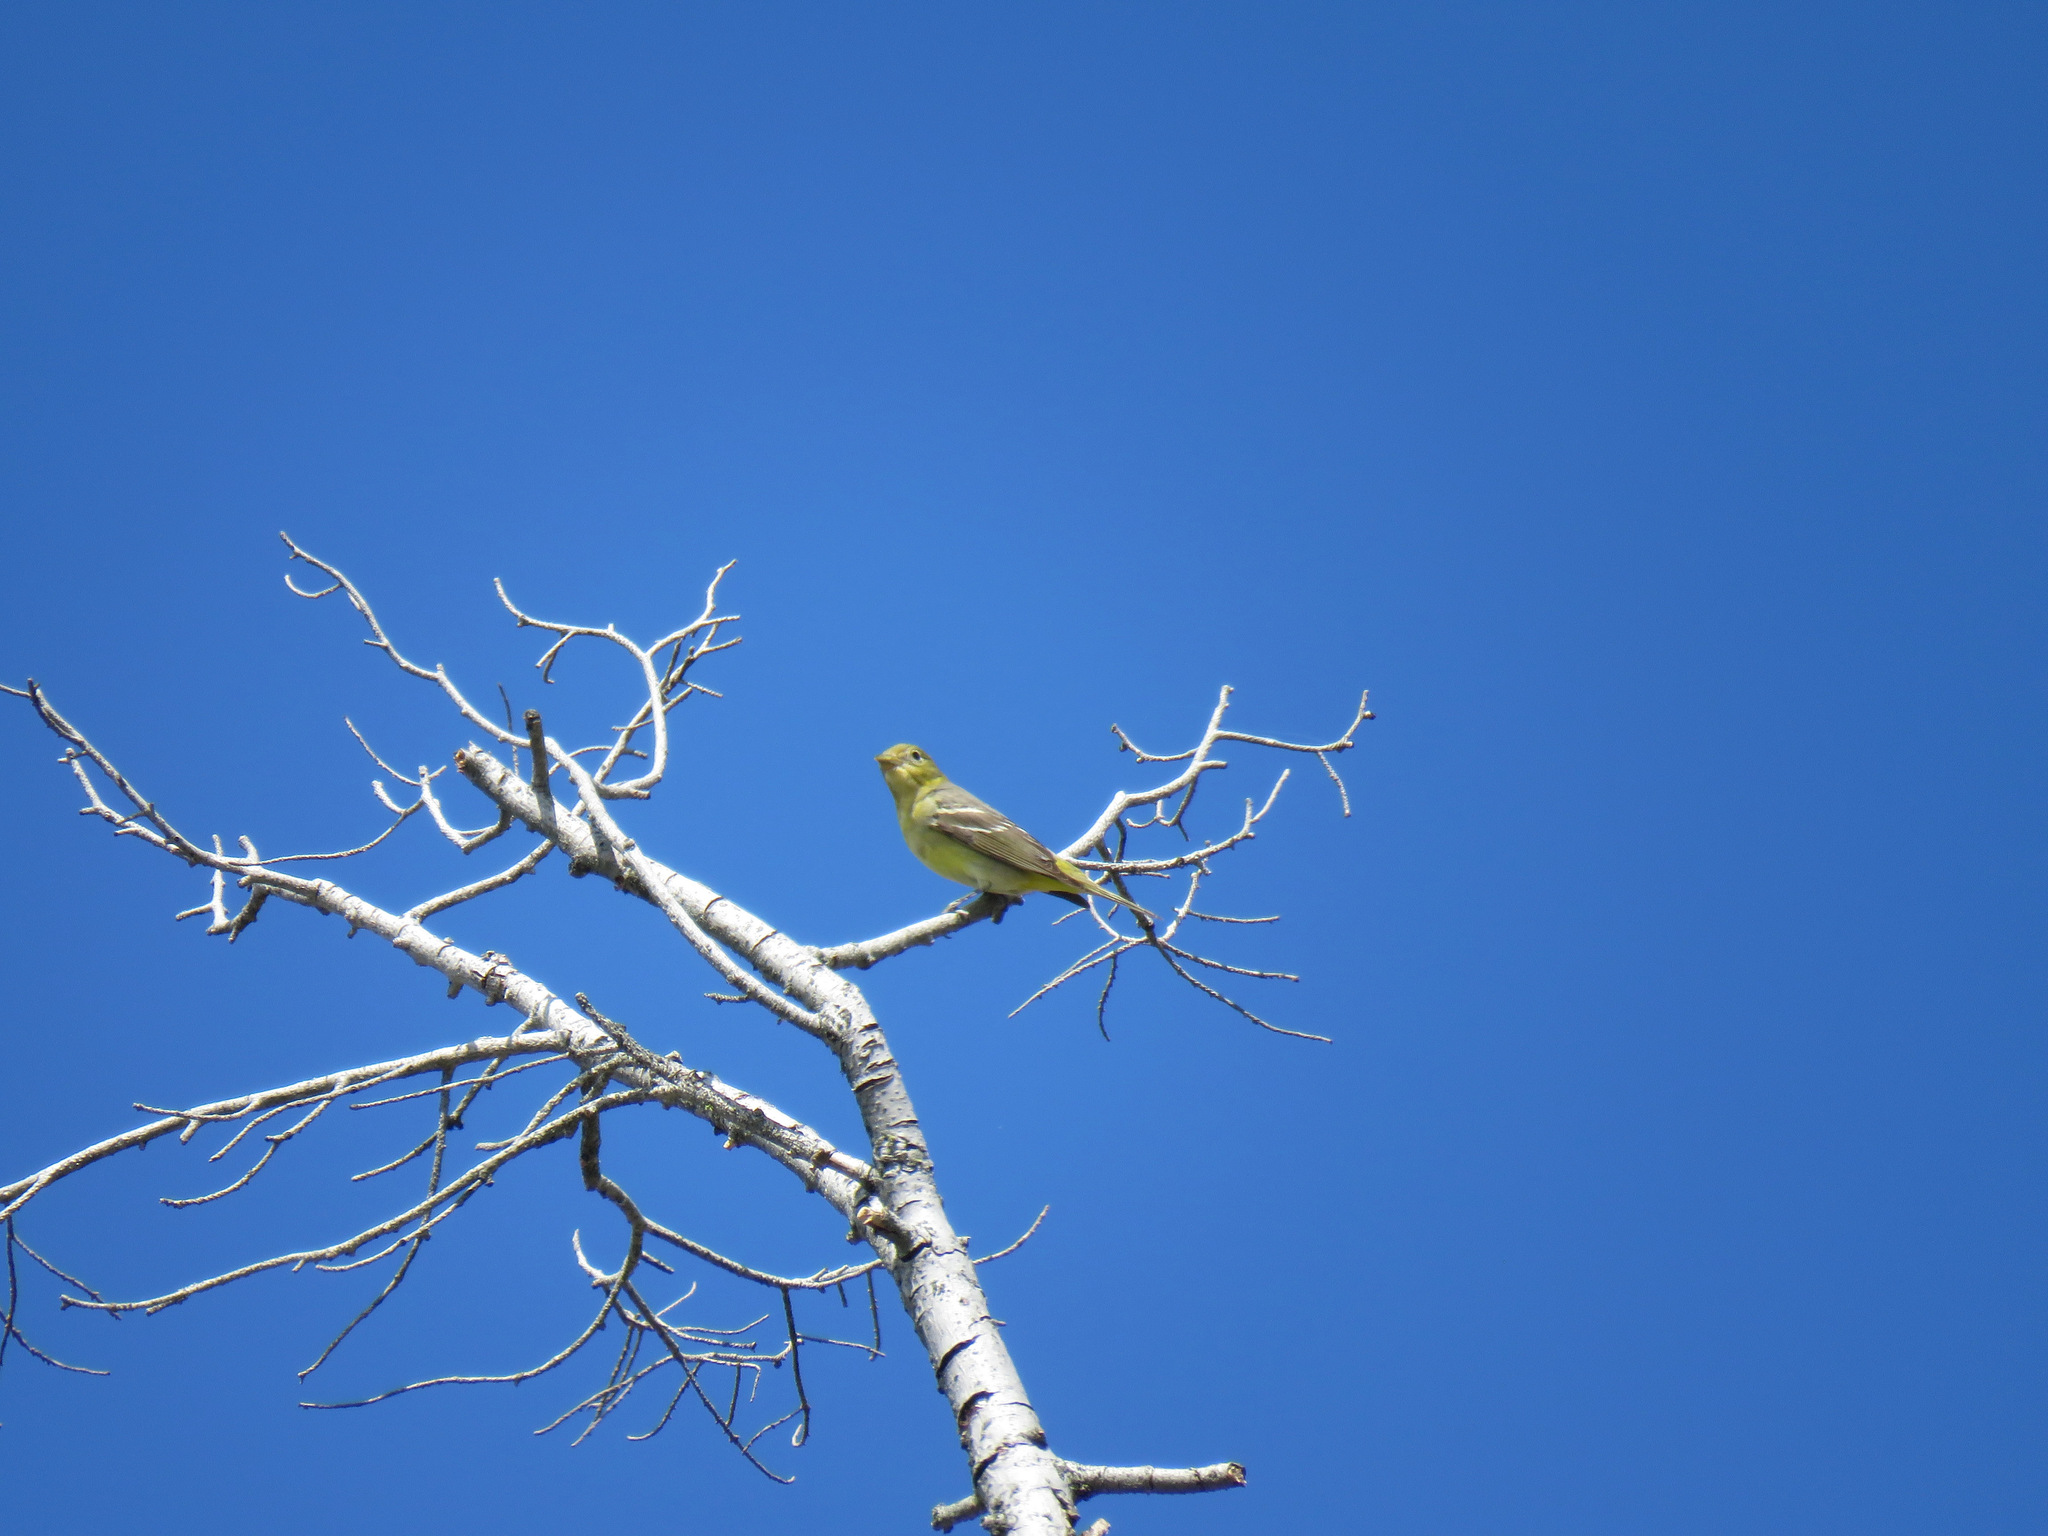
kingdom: Animalia
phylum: Chordata
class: Aves
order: Passeriformes
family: Cardinalidae
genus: Piranga
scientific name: Piranga ludoviciana
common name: Western tanager
